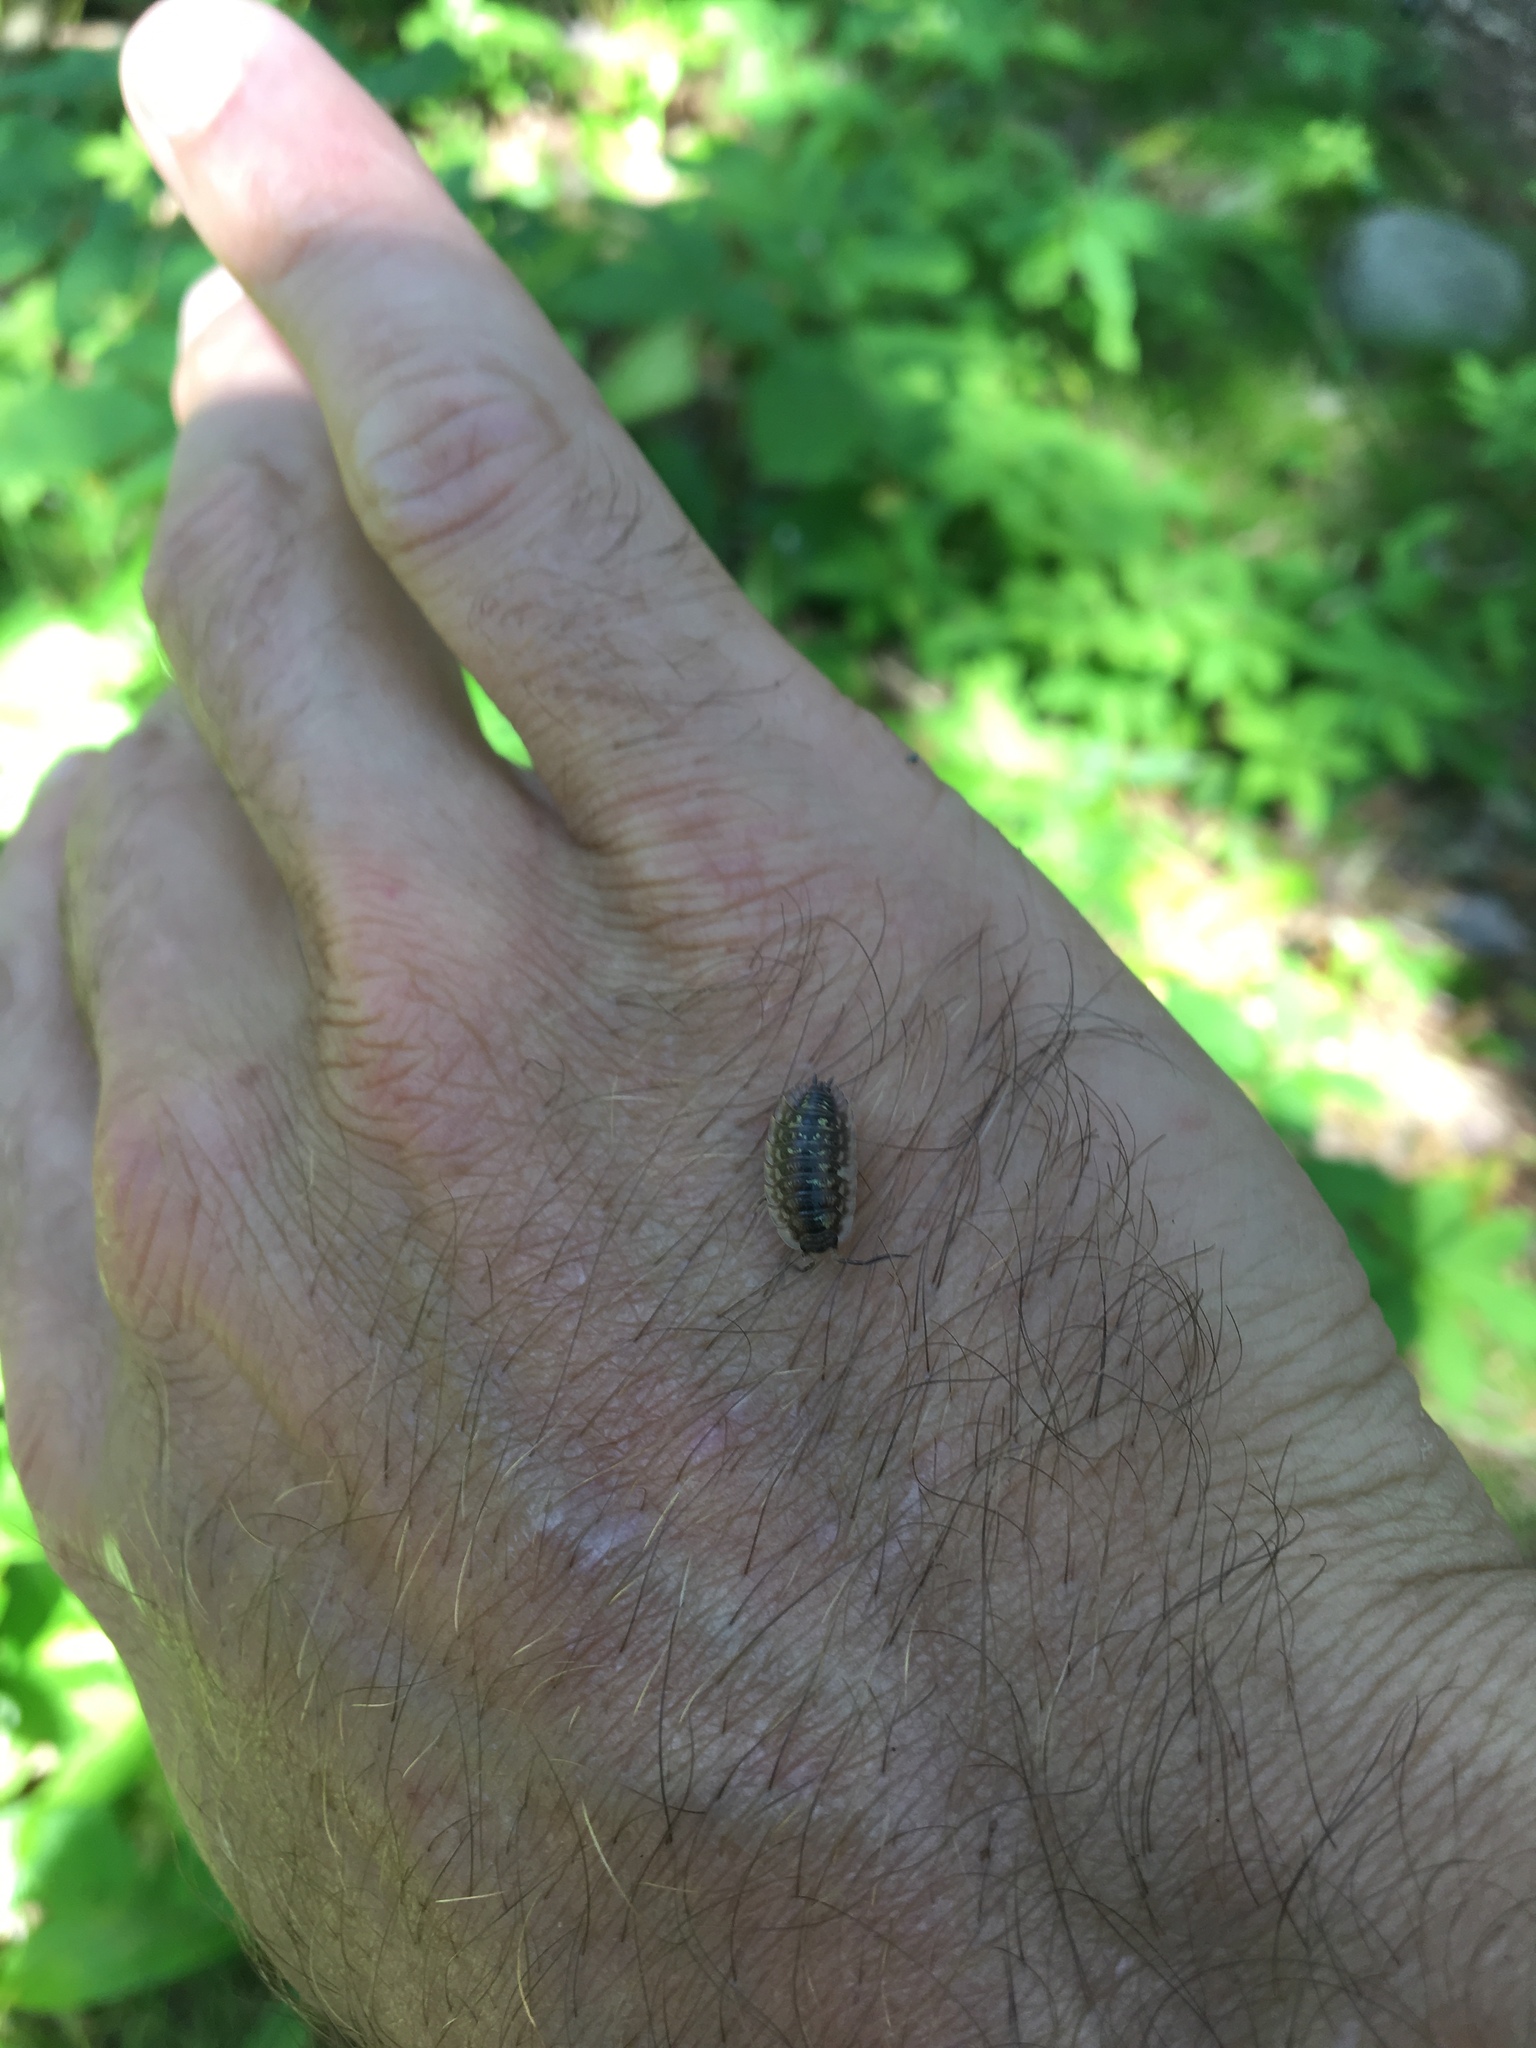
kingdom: Animalia
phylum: Arthropoda
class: Malacostraca
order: Isopoda
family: Oniscidae
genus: Oniscus
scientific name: Oniscus asellus
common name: Common shiny woodlouse
